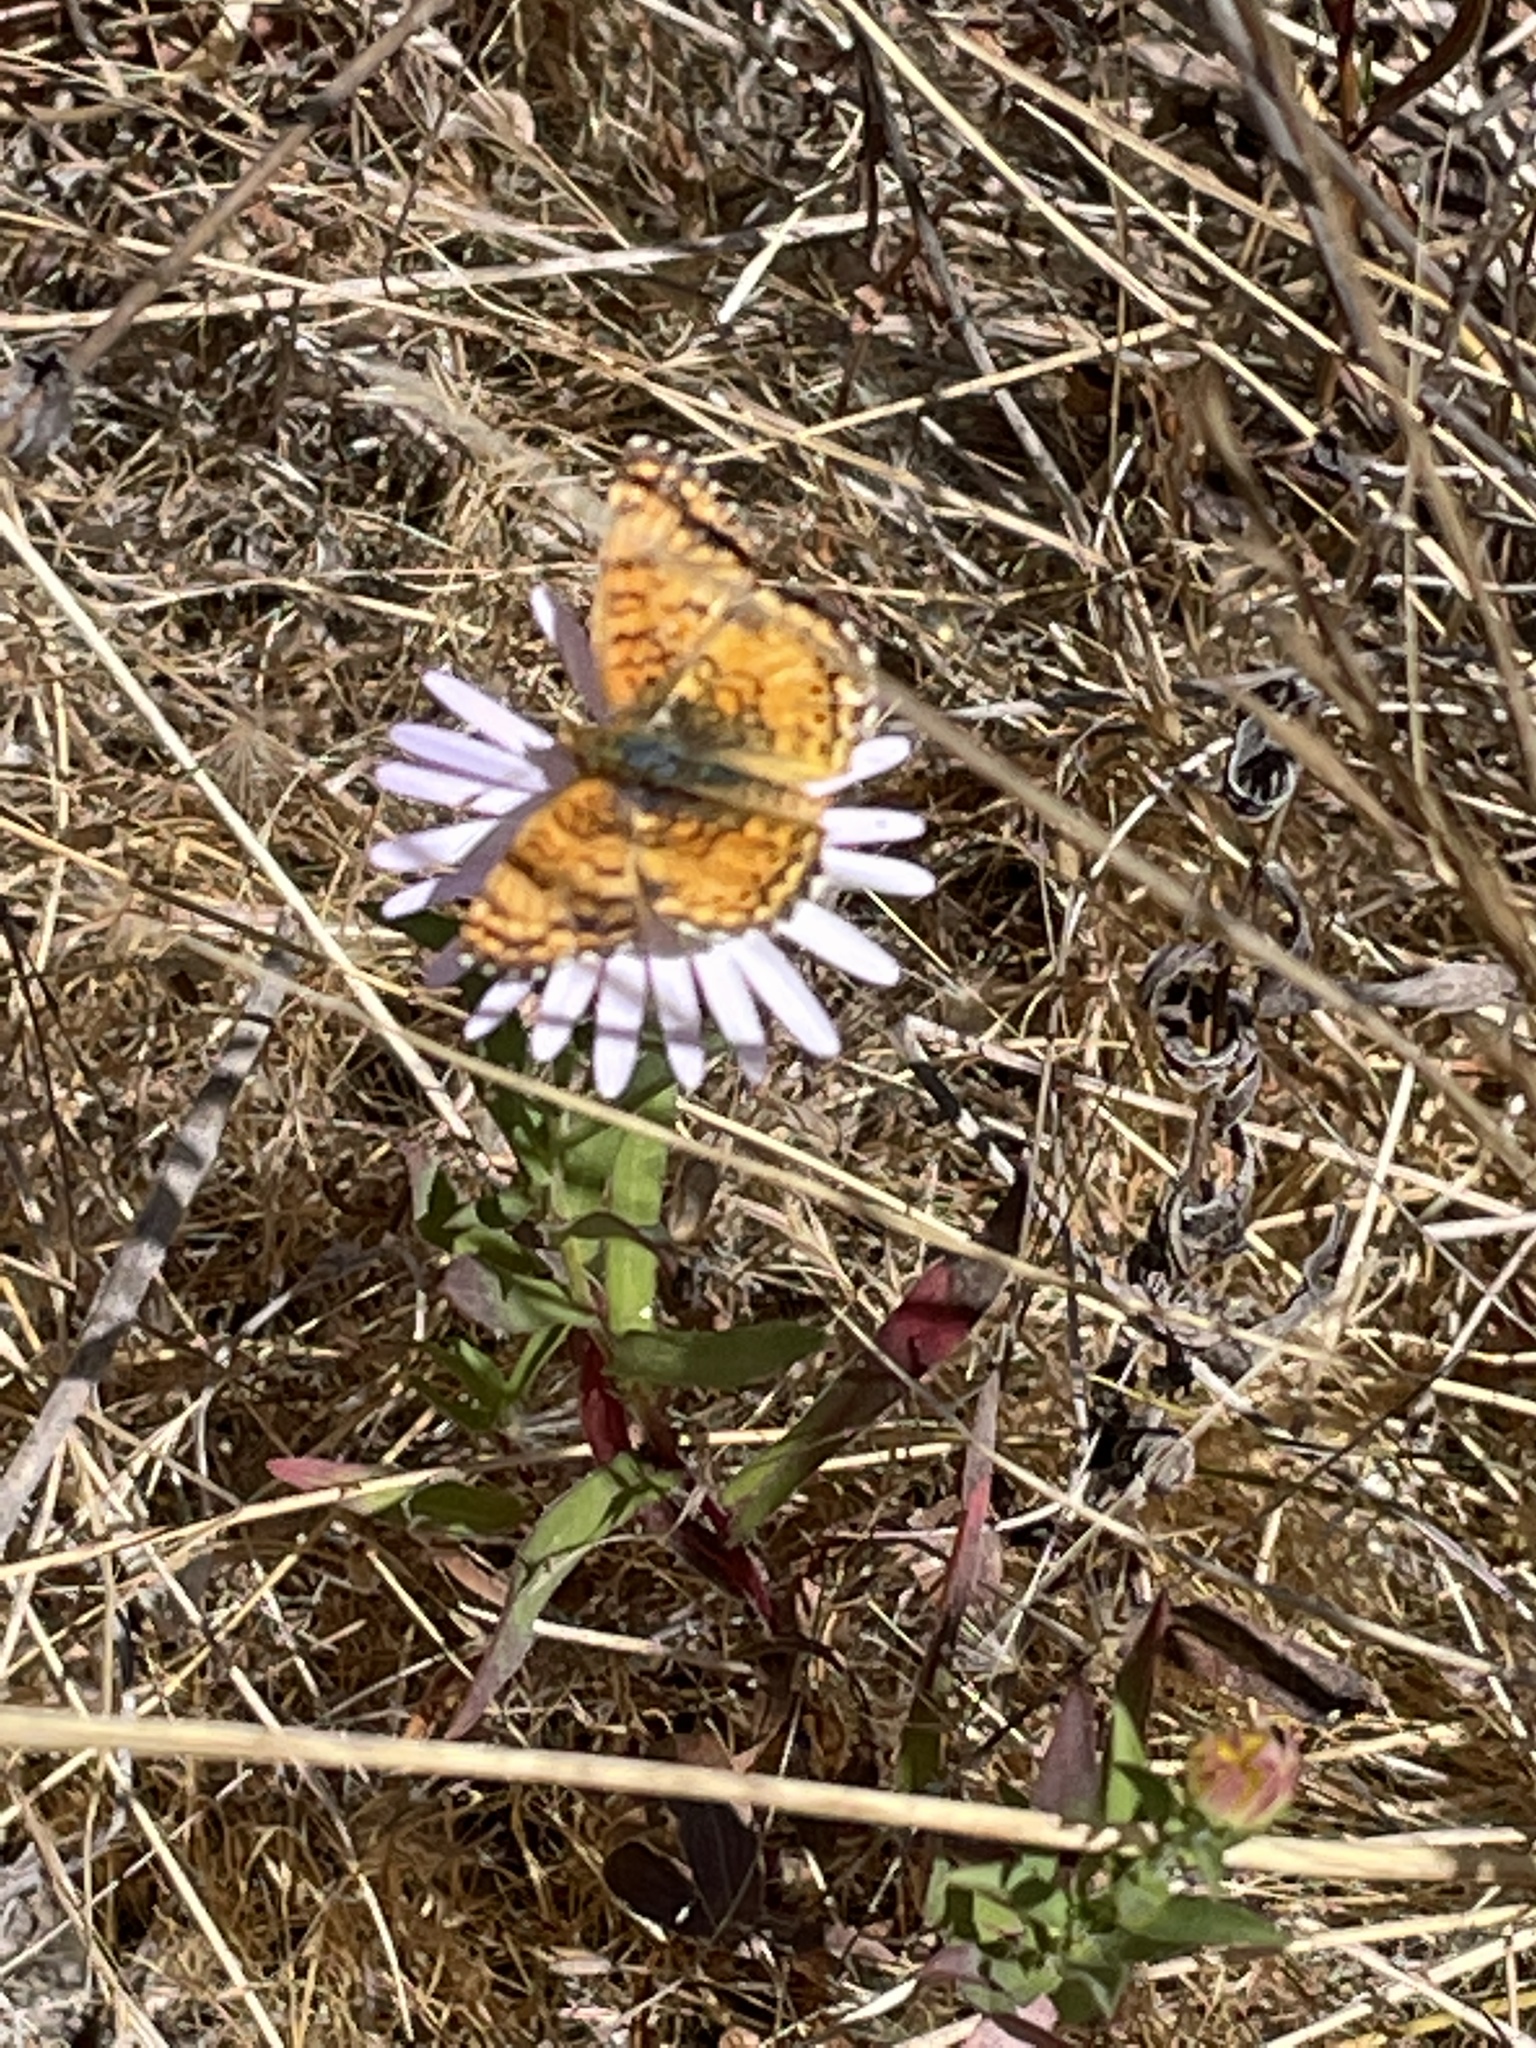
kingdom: Animalia
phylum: Arthropoda
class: Insecta
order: Lepidoptera
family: Nymphalidae
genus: Eresia
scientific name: Eresia aveyrona
